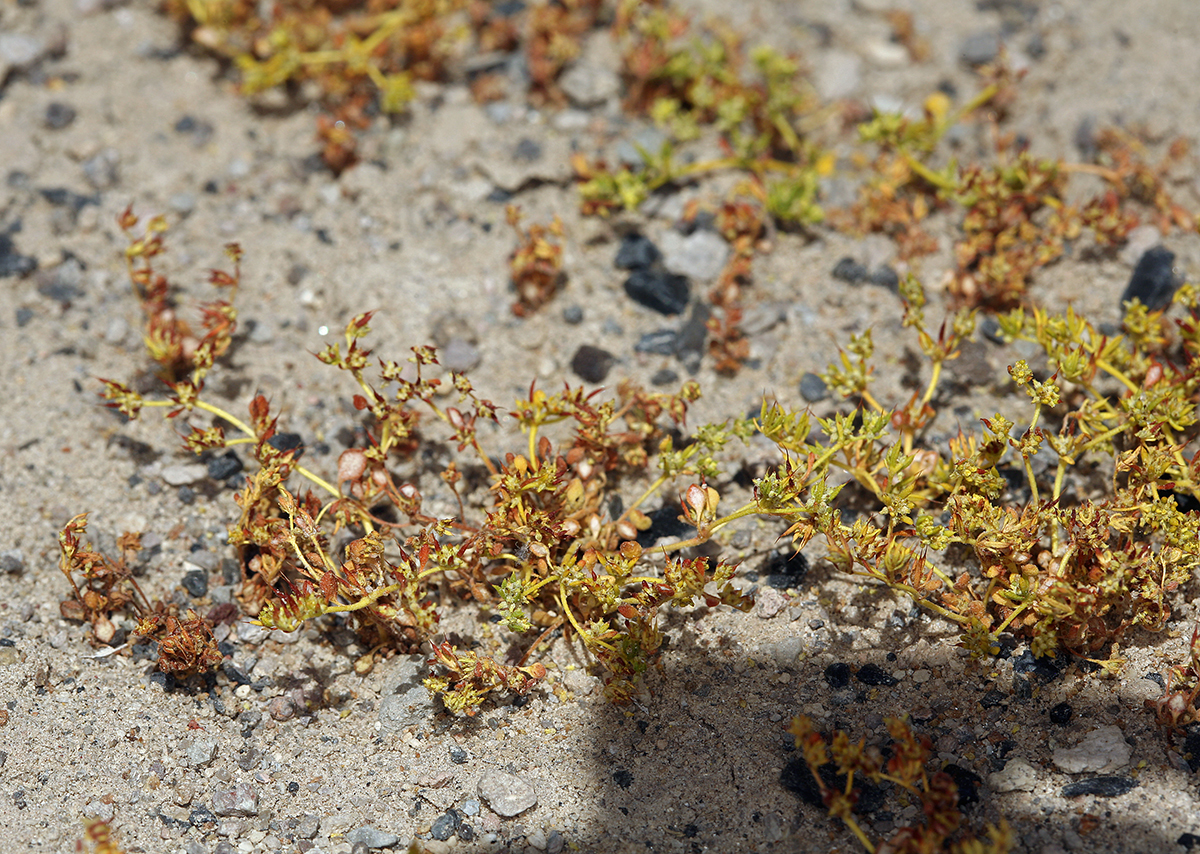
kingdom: Plantae
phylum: Tracheophyta
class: Magnoliopsida
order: Caryophyllales
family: Polygonaceae
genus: Goodmania
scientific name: Goodmania luteola
